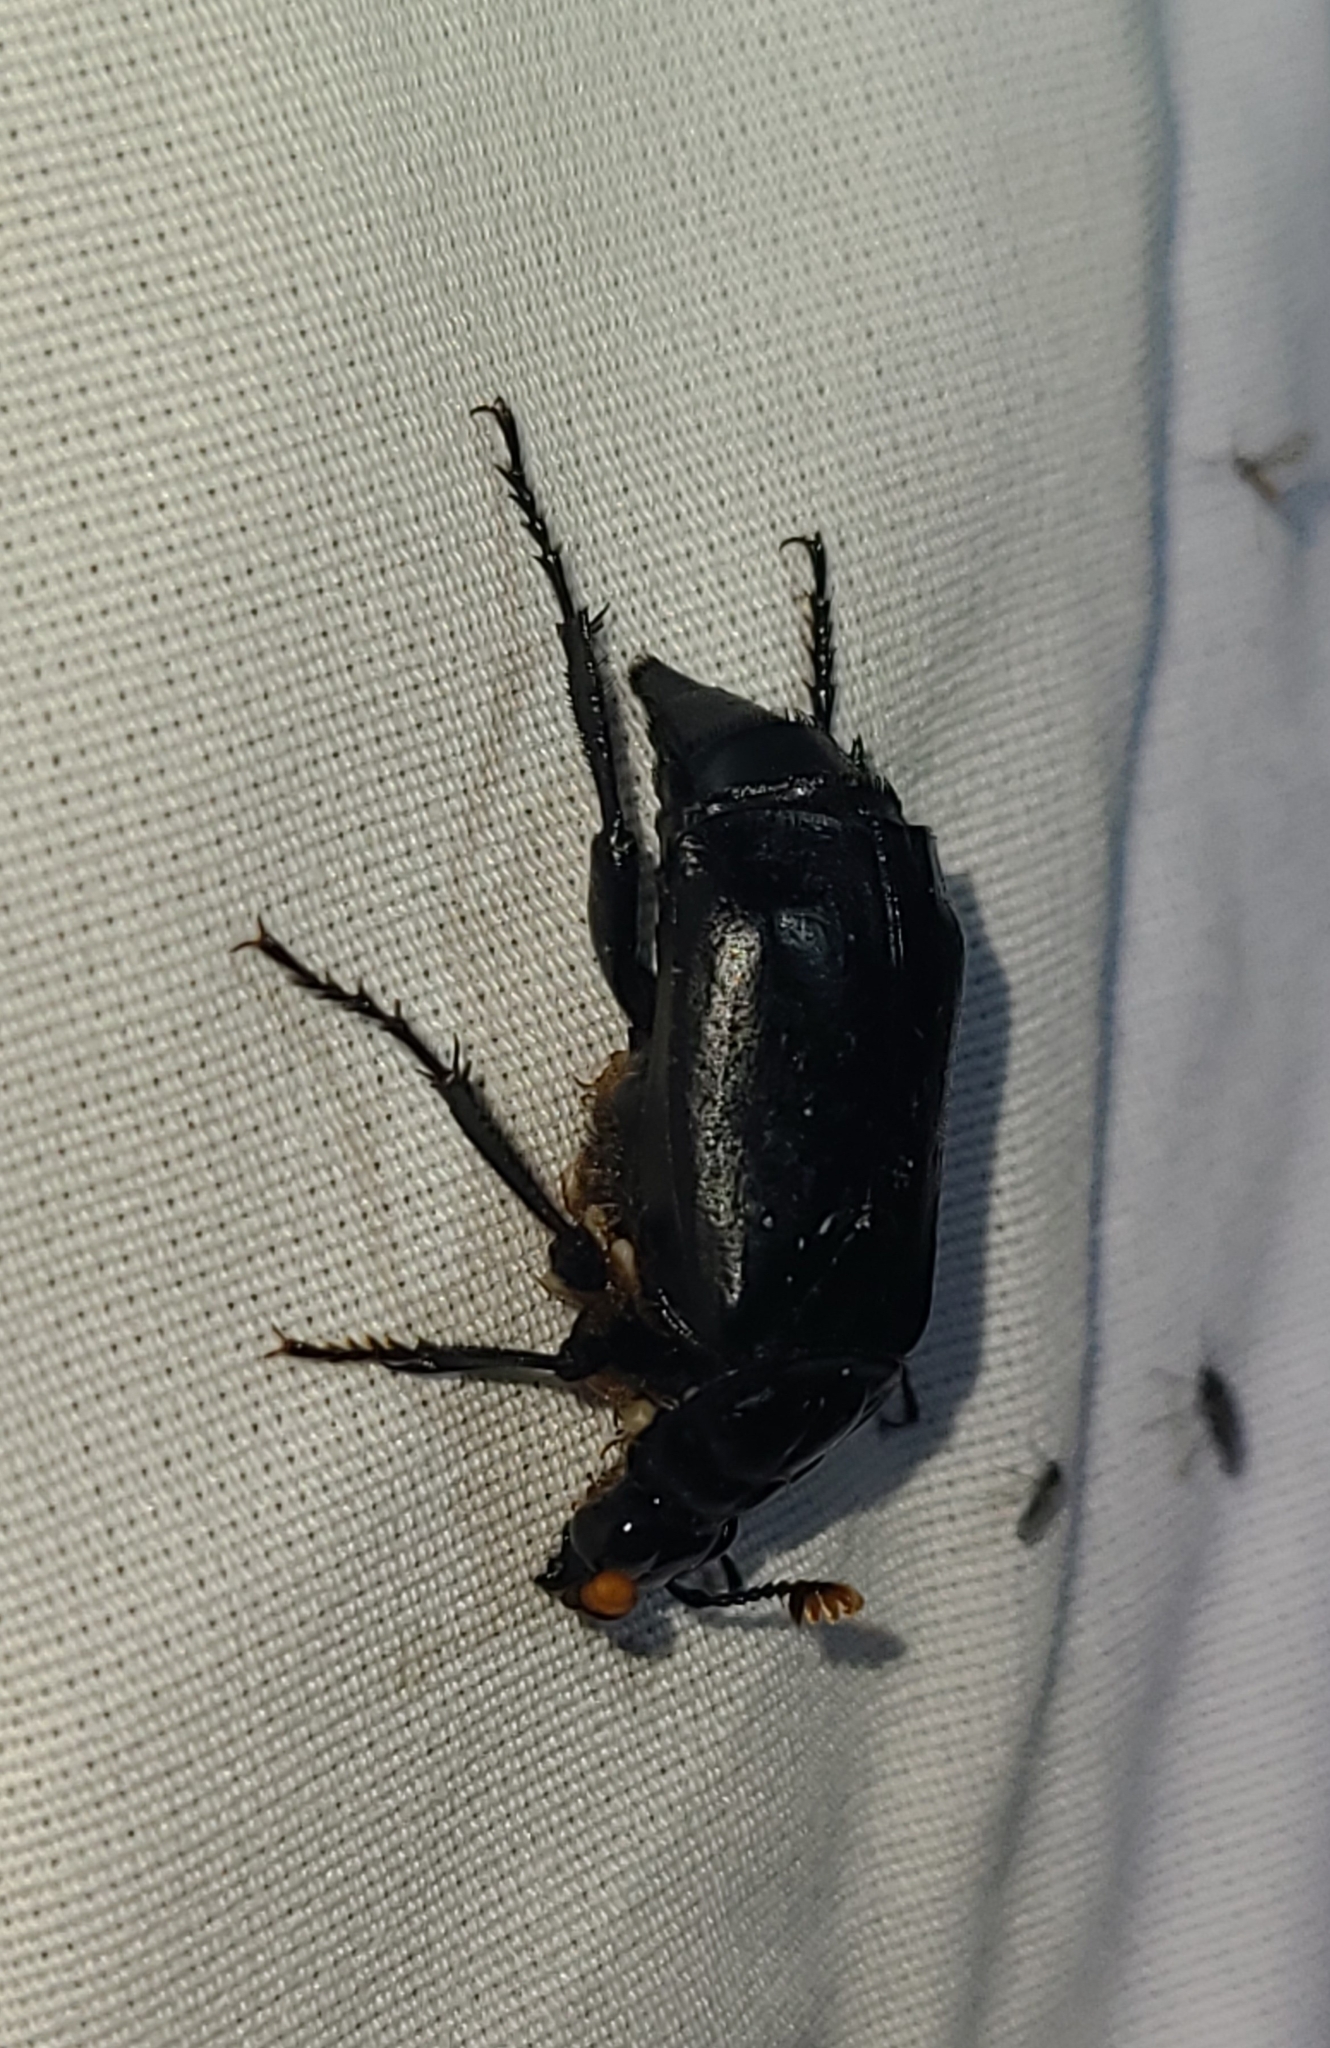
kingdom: Animalia
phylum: Arthropoda
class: Insecta
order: Coleoptera
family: Staphylinidae
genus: Nicrophorus
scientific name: Nicrophorus nigrita
